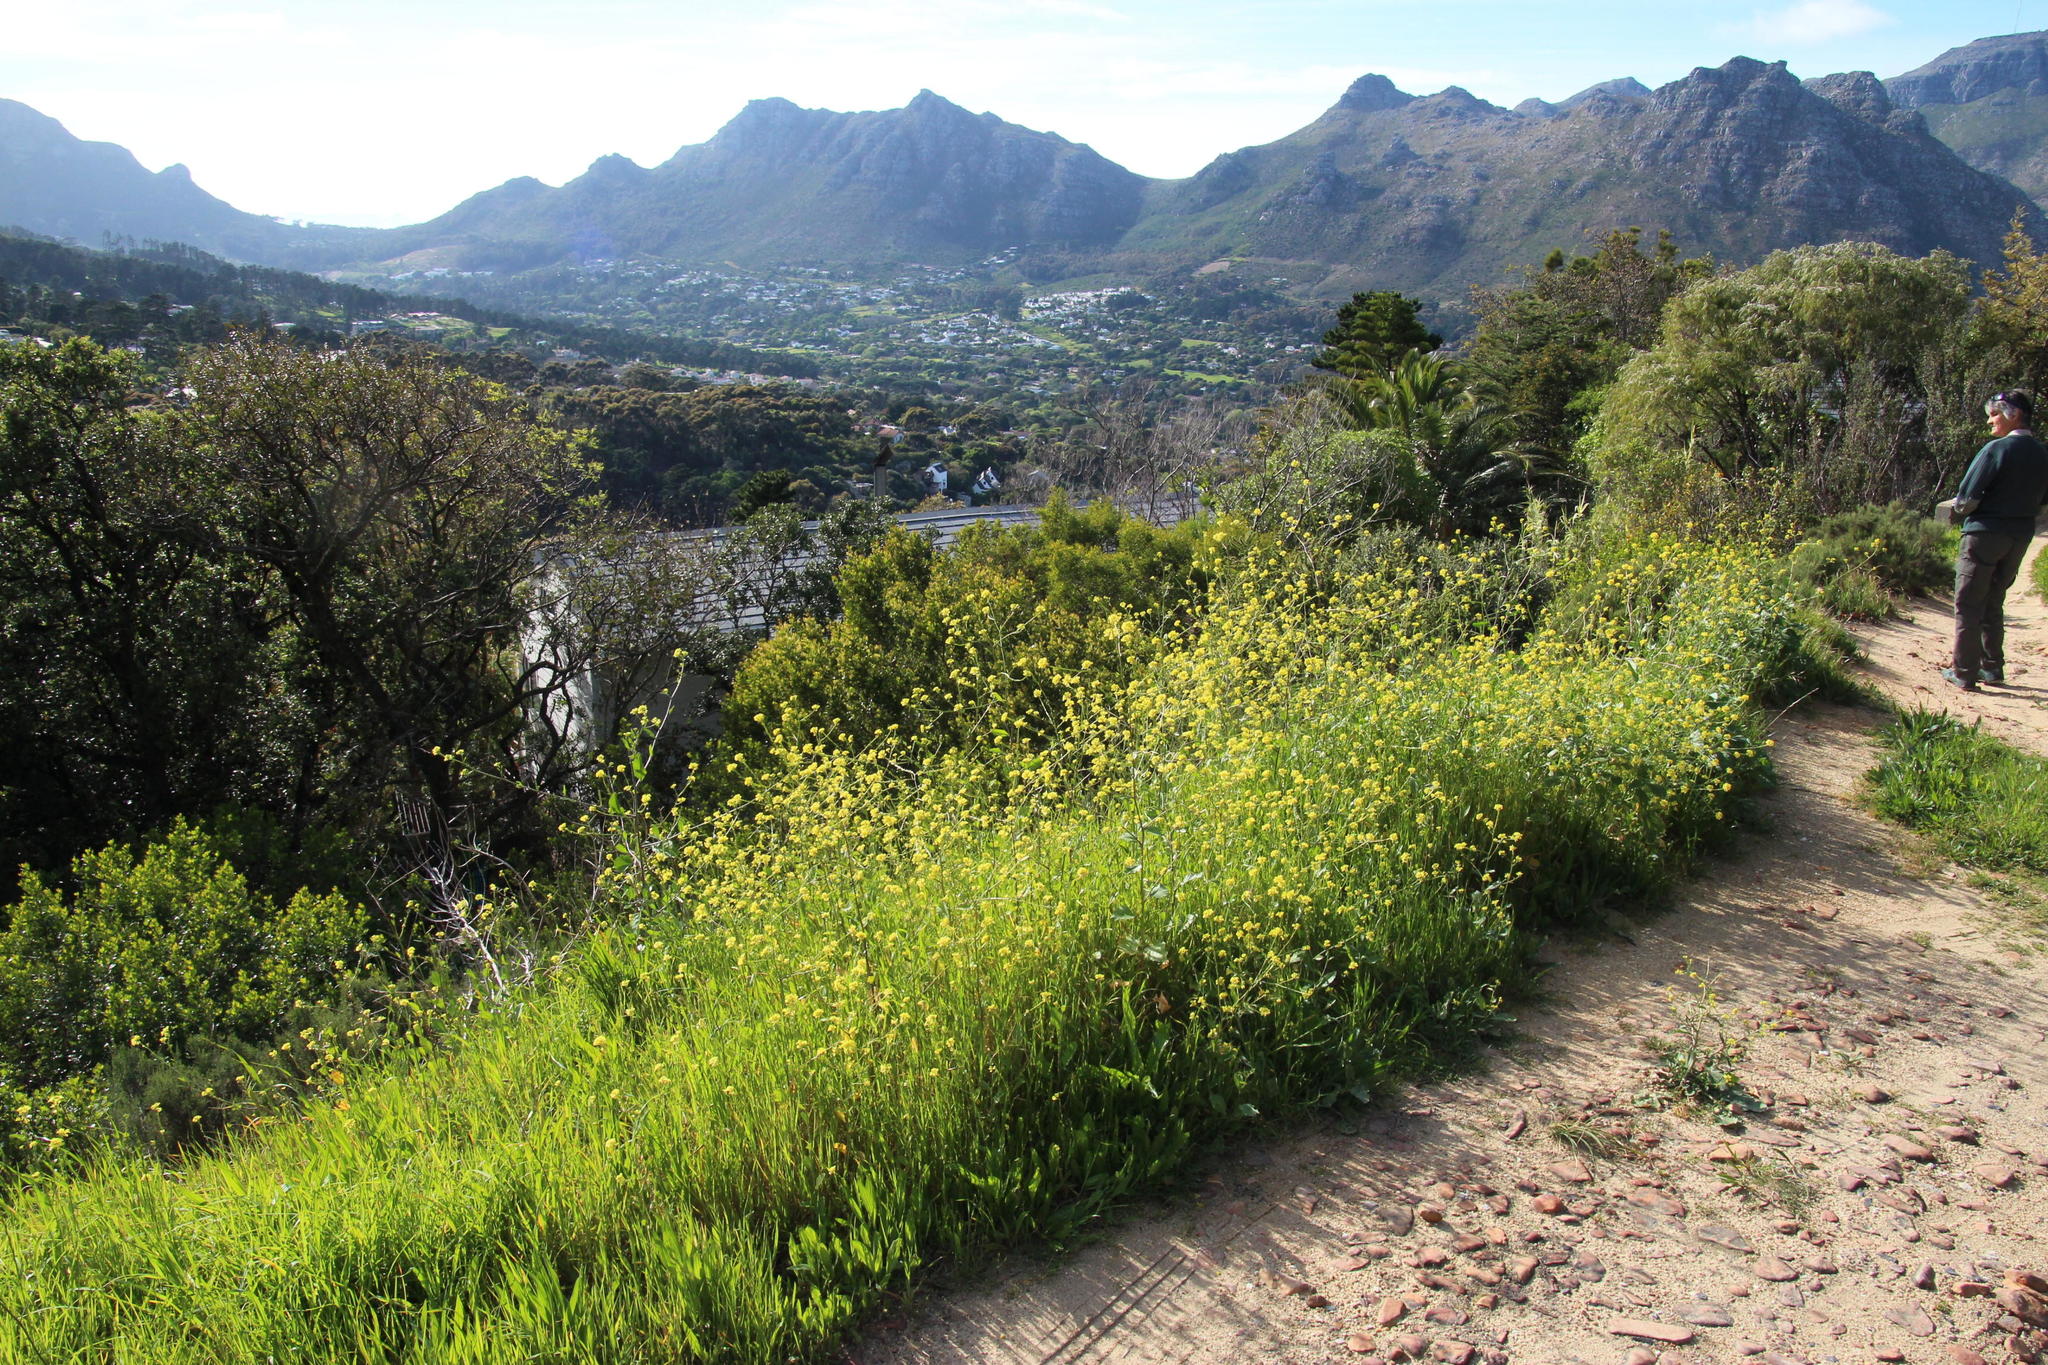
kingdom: Plantae
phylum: Tracheophyta
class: Magnoliopsida
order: Brassicales
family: Brassicaceae
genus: Rapistrum
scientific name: Rapistrum rugosum
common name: Annual bastardcabbage
